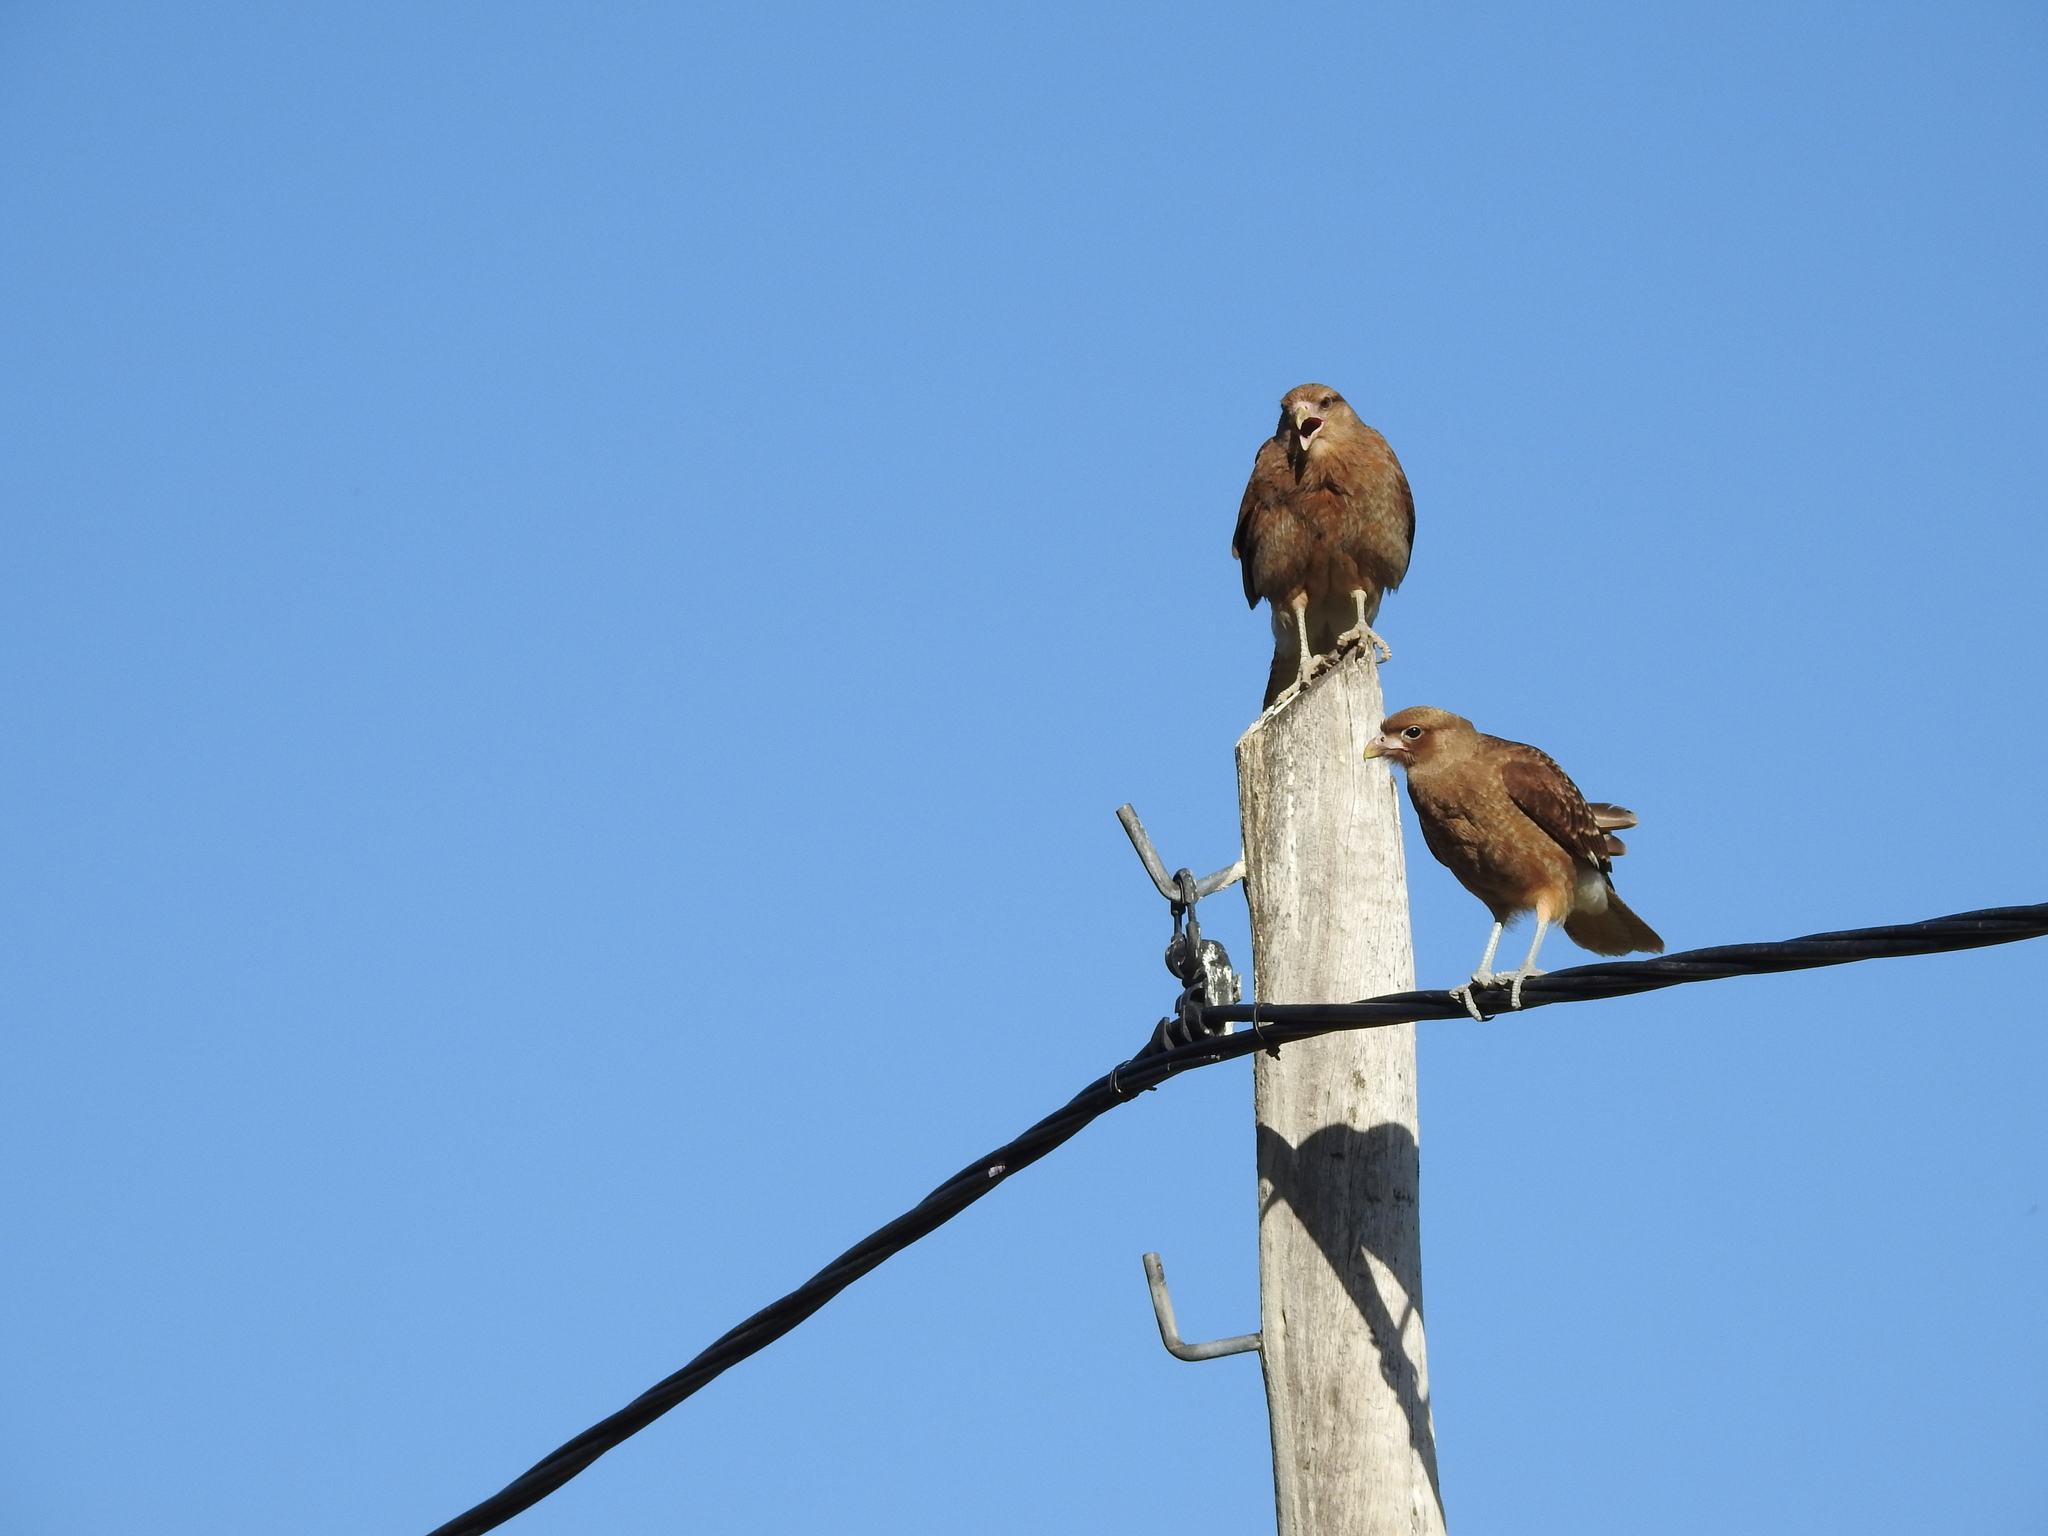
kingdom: Animalia
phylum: Chordata
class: Aves
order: Falconiformes
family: Falconidae
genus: Daptrius
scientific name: Daptrius
